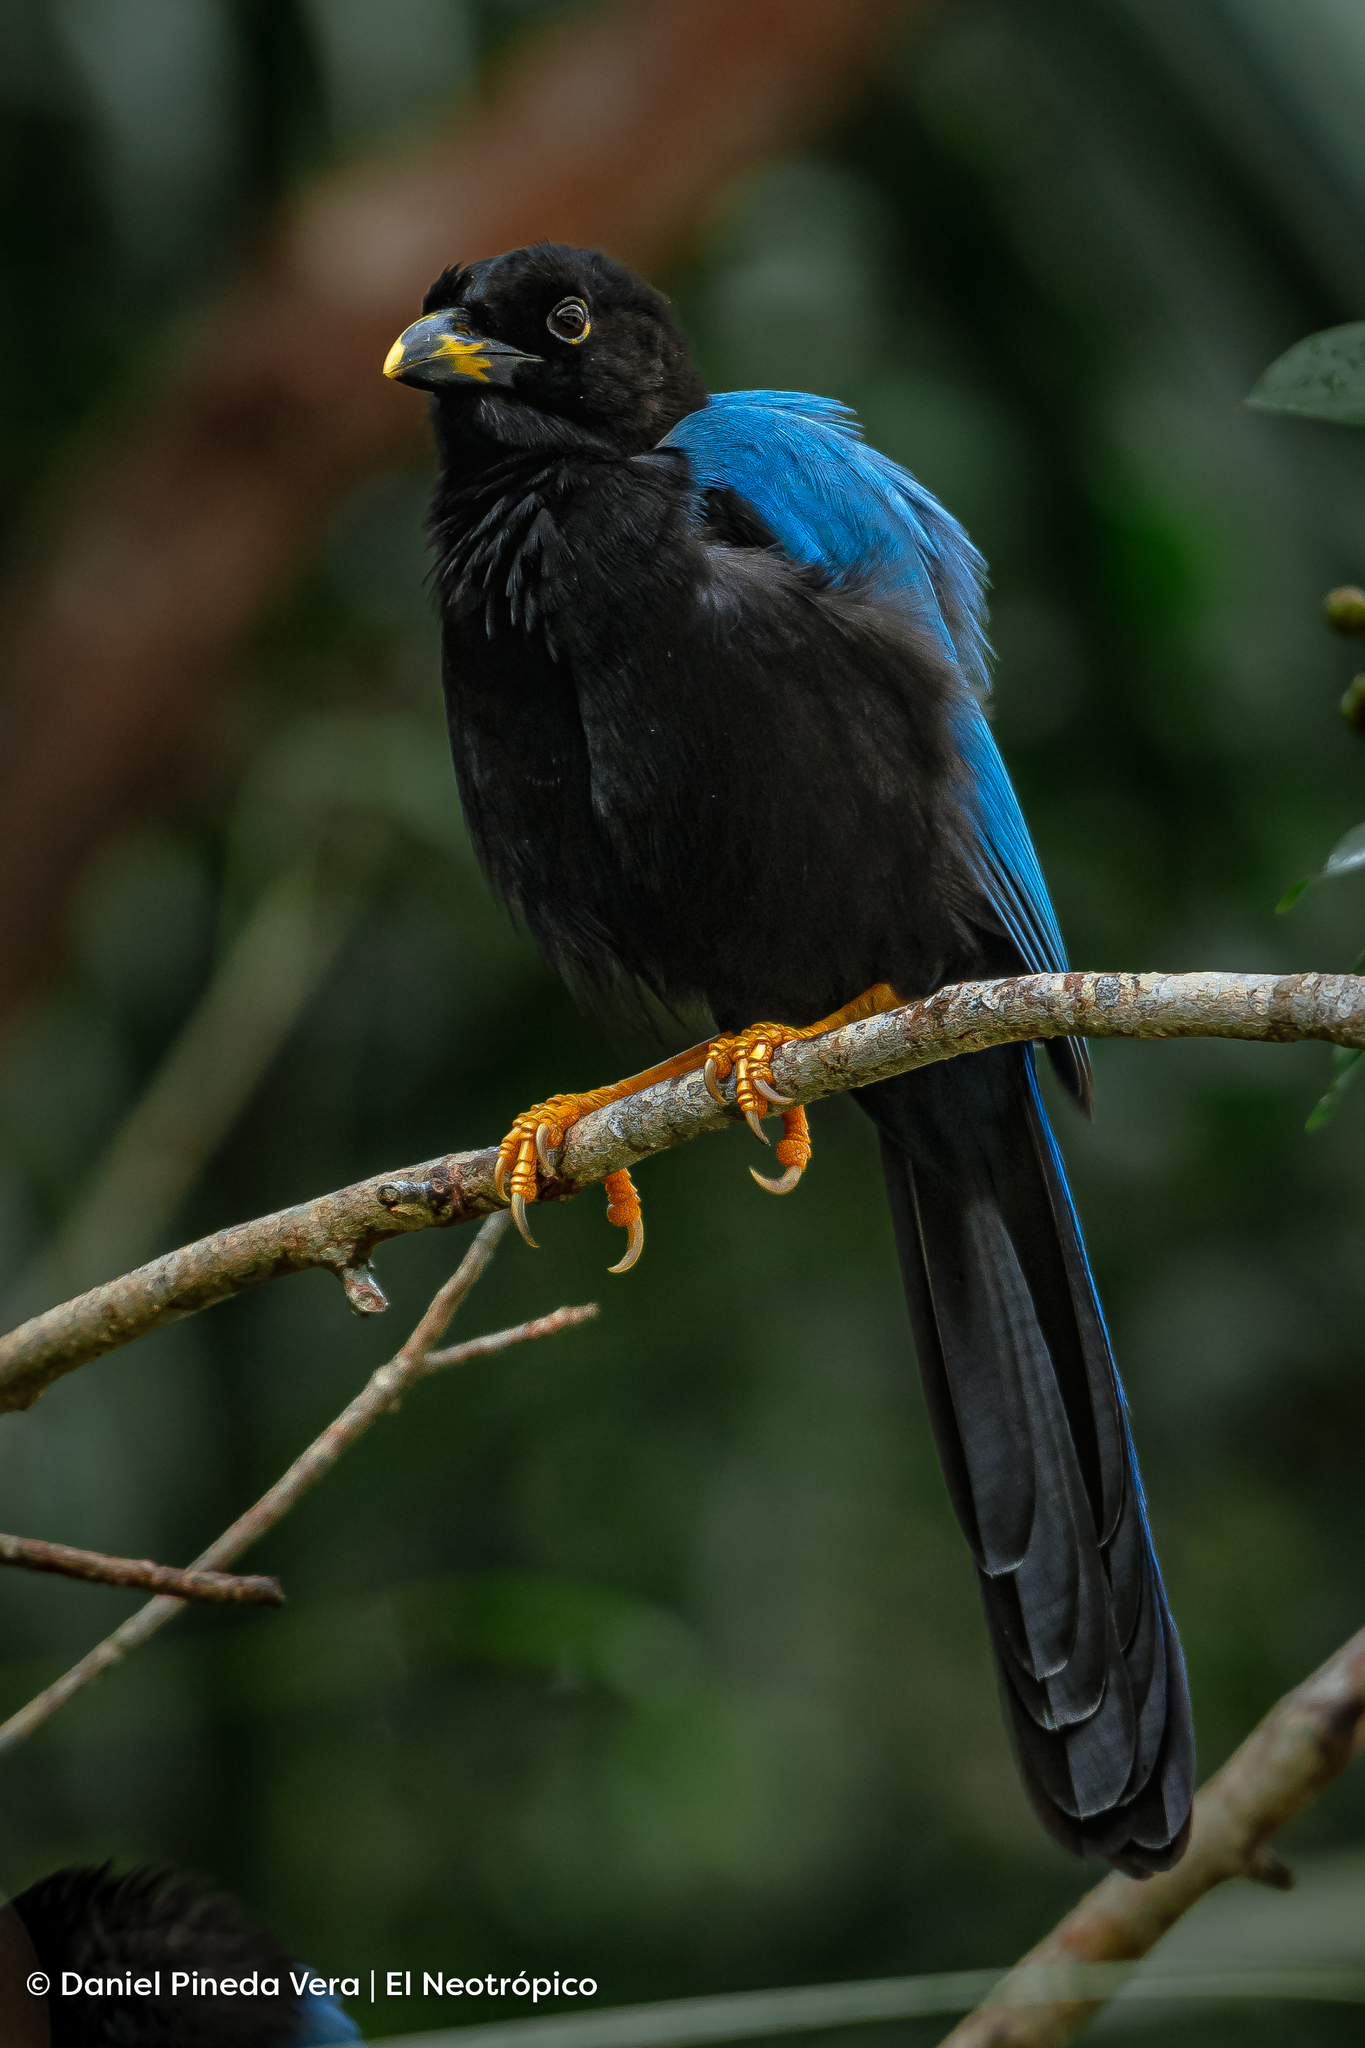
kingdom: Animalia
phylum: Chordata
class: Aves
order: Passeriformes
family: Corvidae
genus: Cyanocorax
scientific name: Cyanocorax yucatanicus
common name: Yucatan jay
